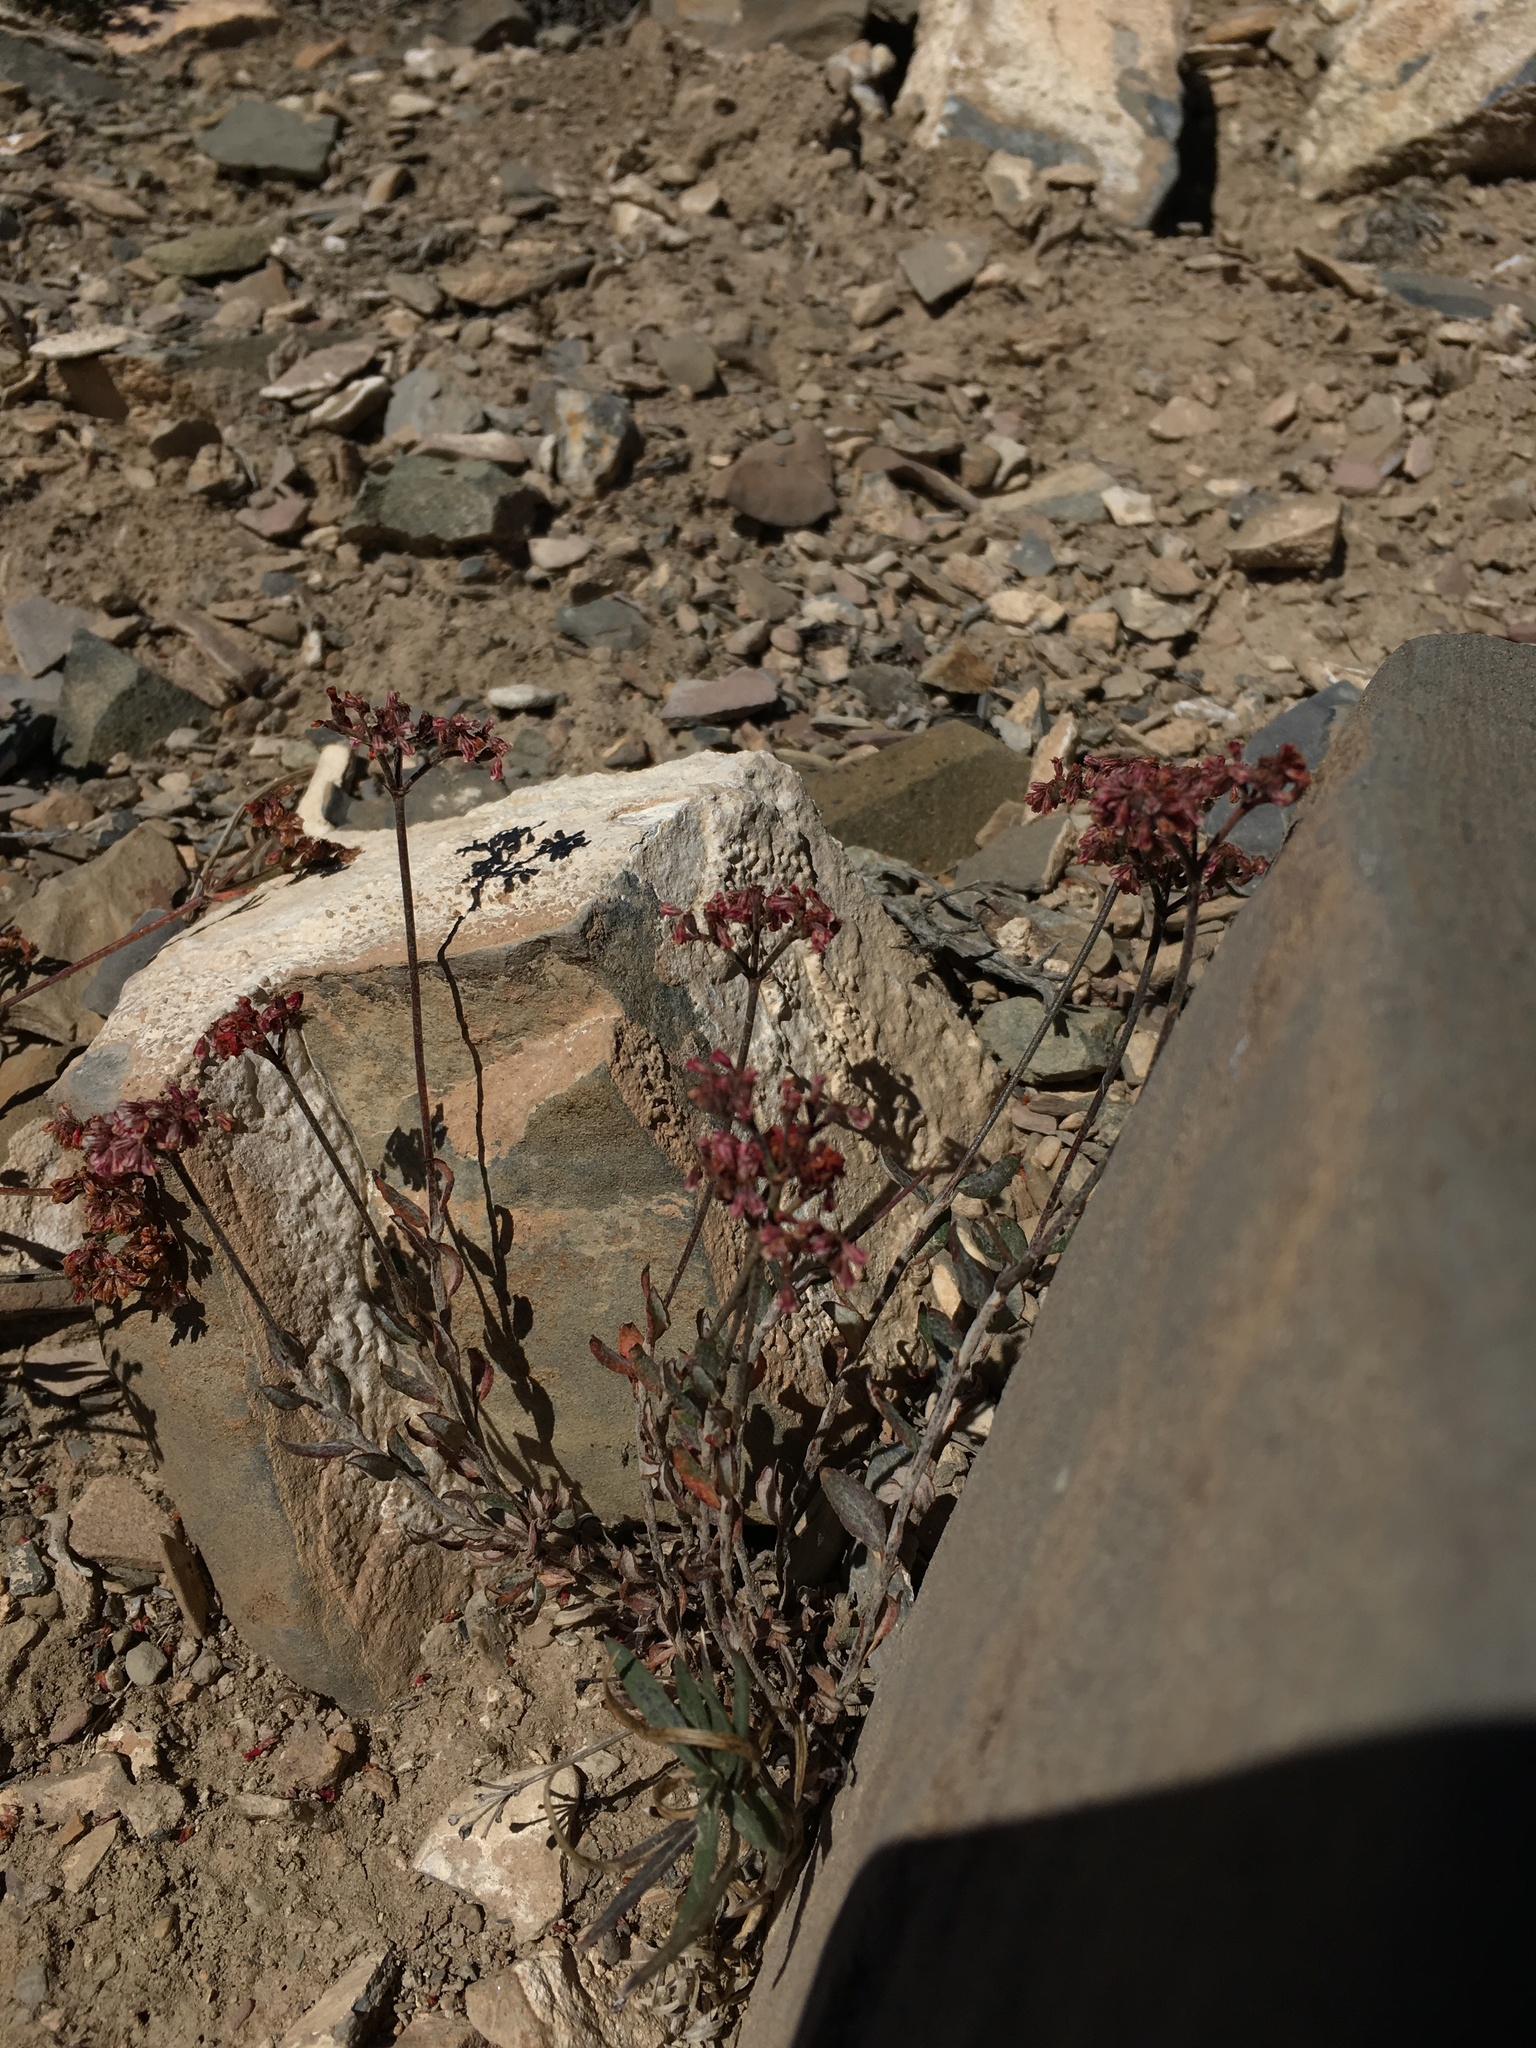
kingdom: Plantae
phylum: Tracheophyta
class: Magnoliopsida
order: Caryophyllales
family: Polygonaceae
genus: Eriogonum
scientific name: Eriogonum microtheca
